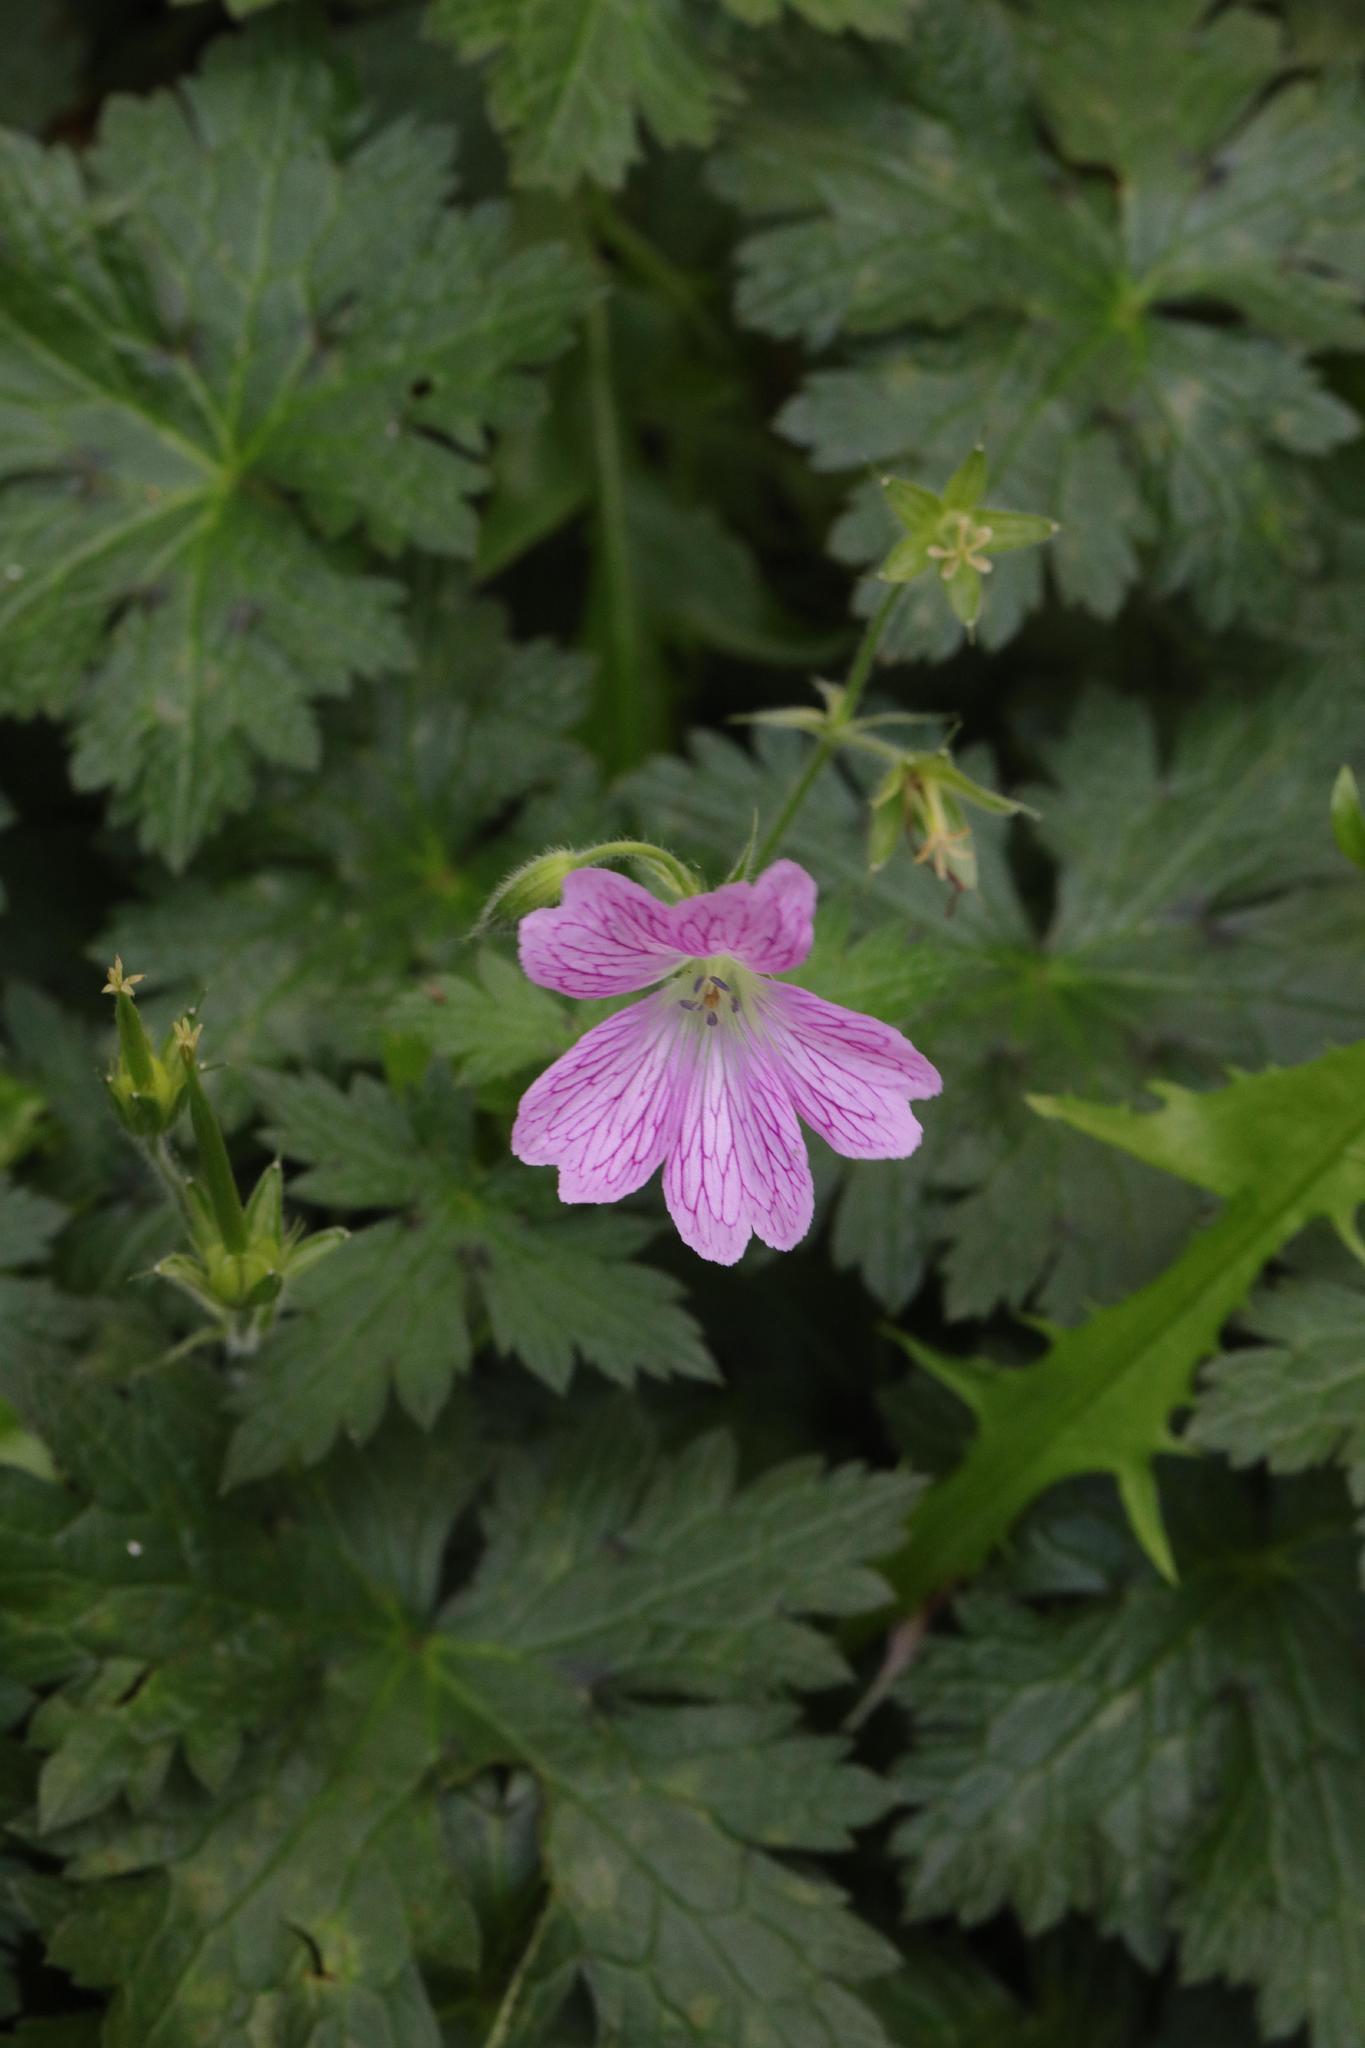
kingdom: Plantae
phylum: Tracheophyta
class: Magnoliopsida
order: Geraniales
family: Geraniaceae
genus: Geranium
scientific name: Geranium oxonianum
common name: Druce's crane's-bill
